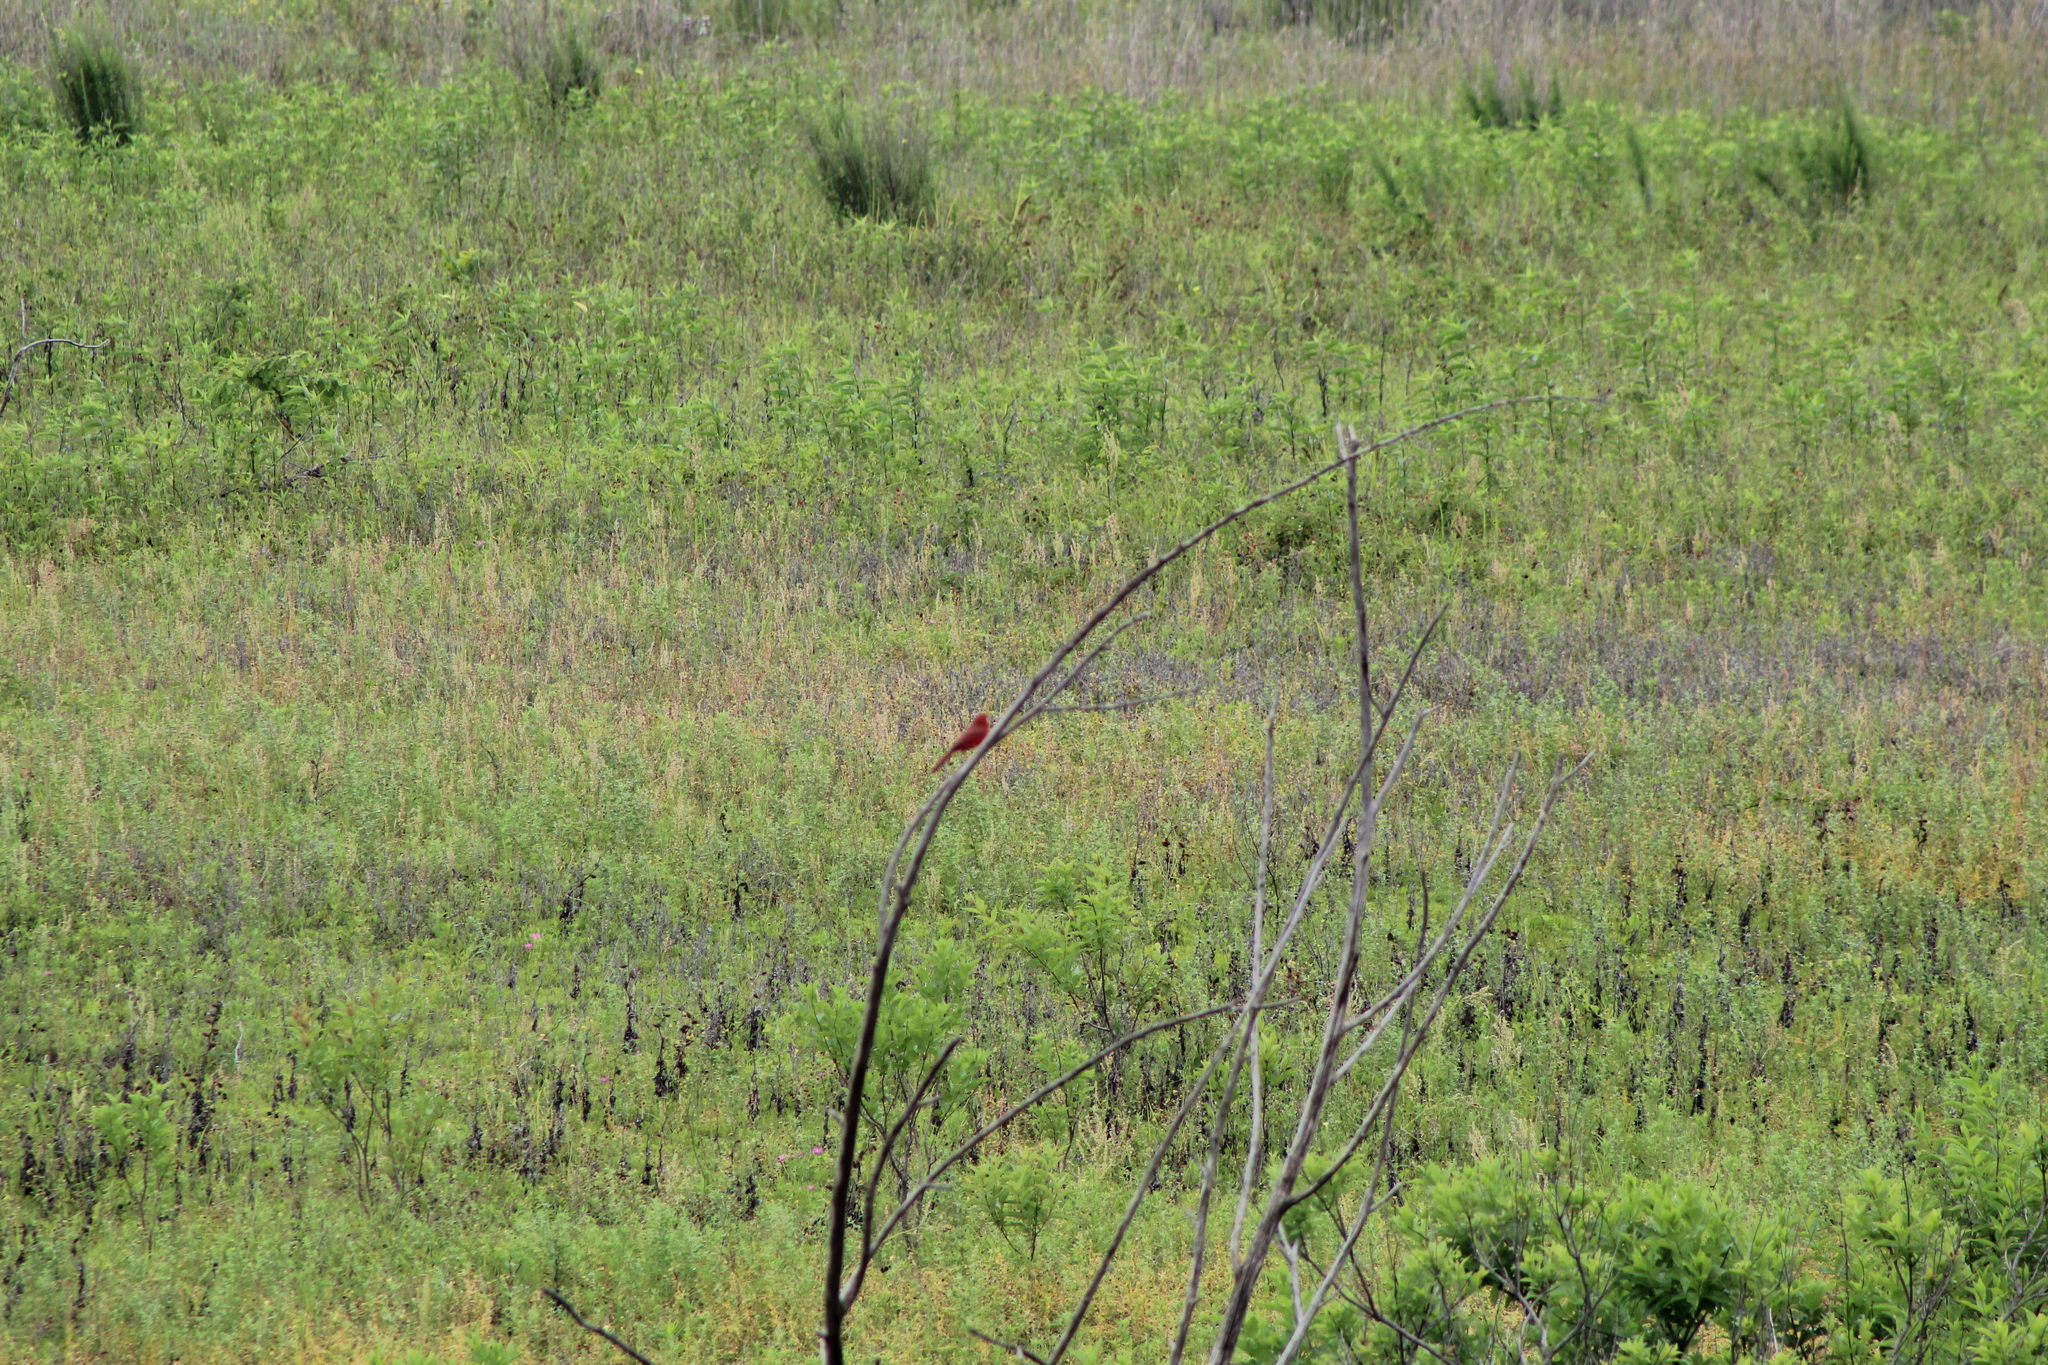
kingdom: Animalia
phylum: Chordata
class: Aves
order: Passeriformes
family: Cardinalidae
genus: Cardinalis
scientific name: Cardinalis cardinalis
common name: Northern cardinal
